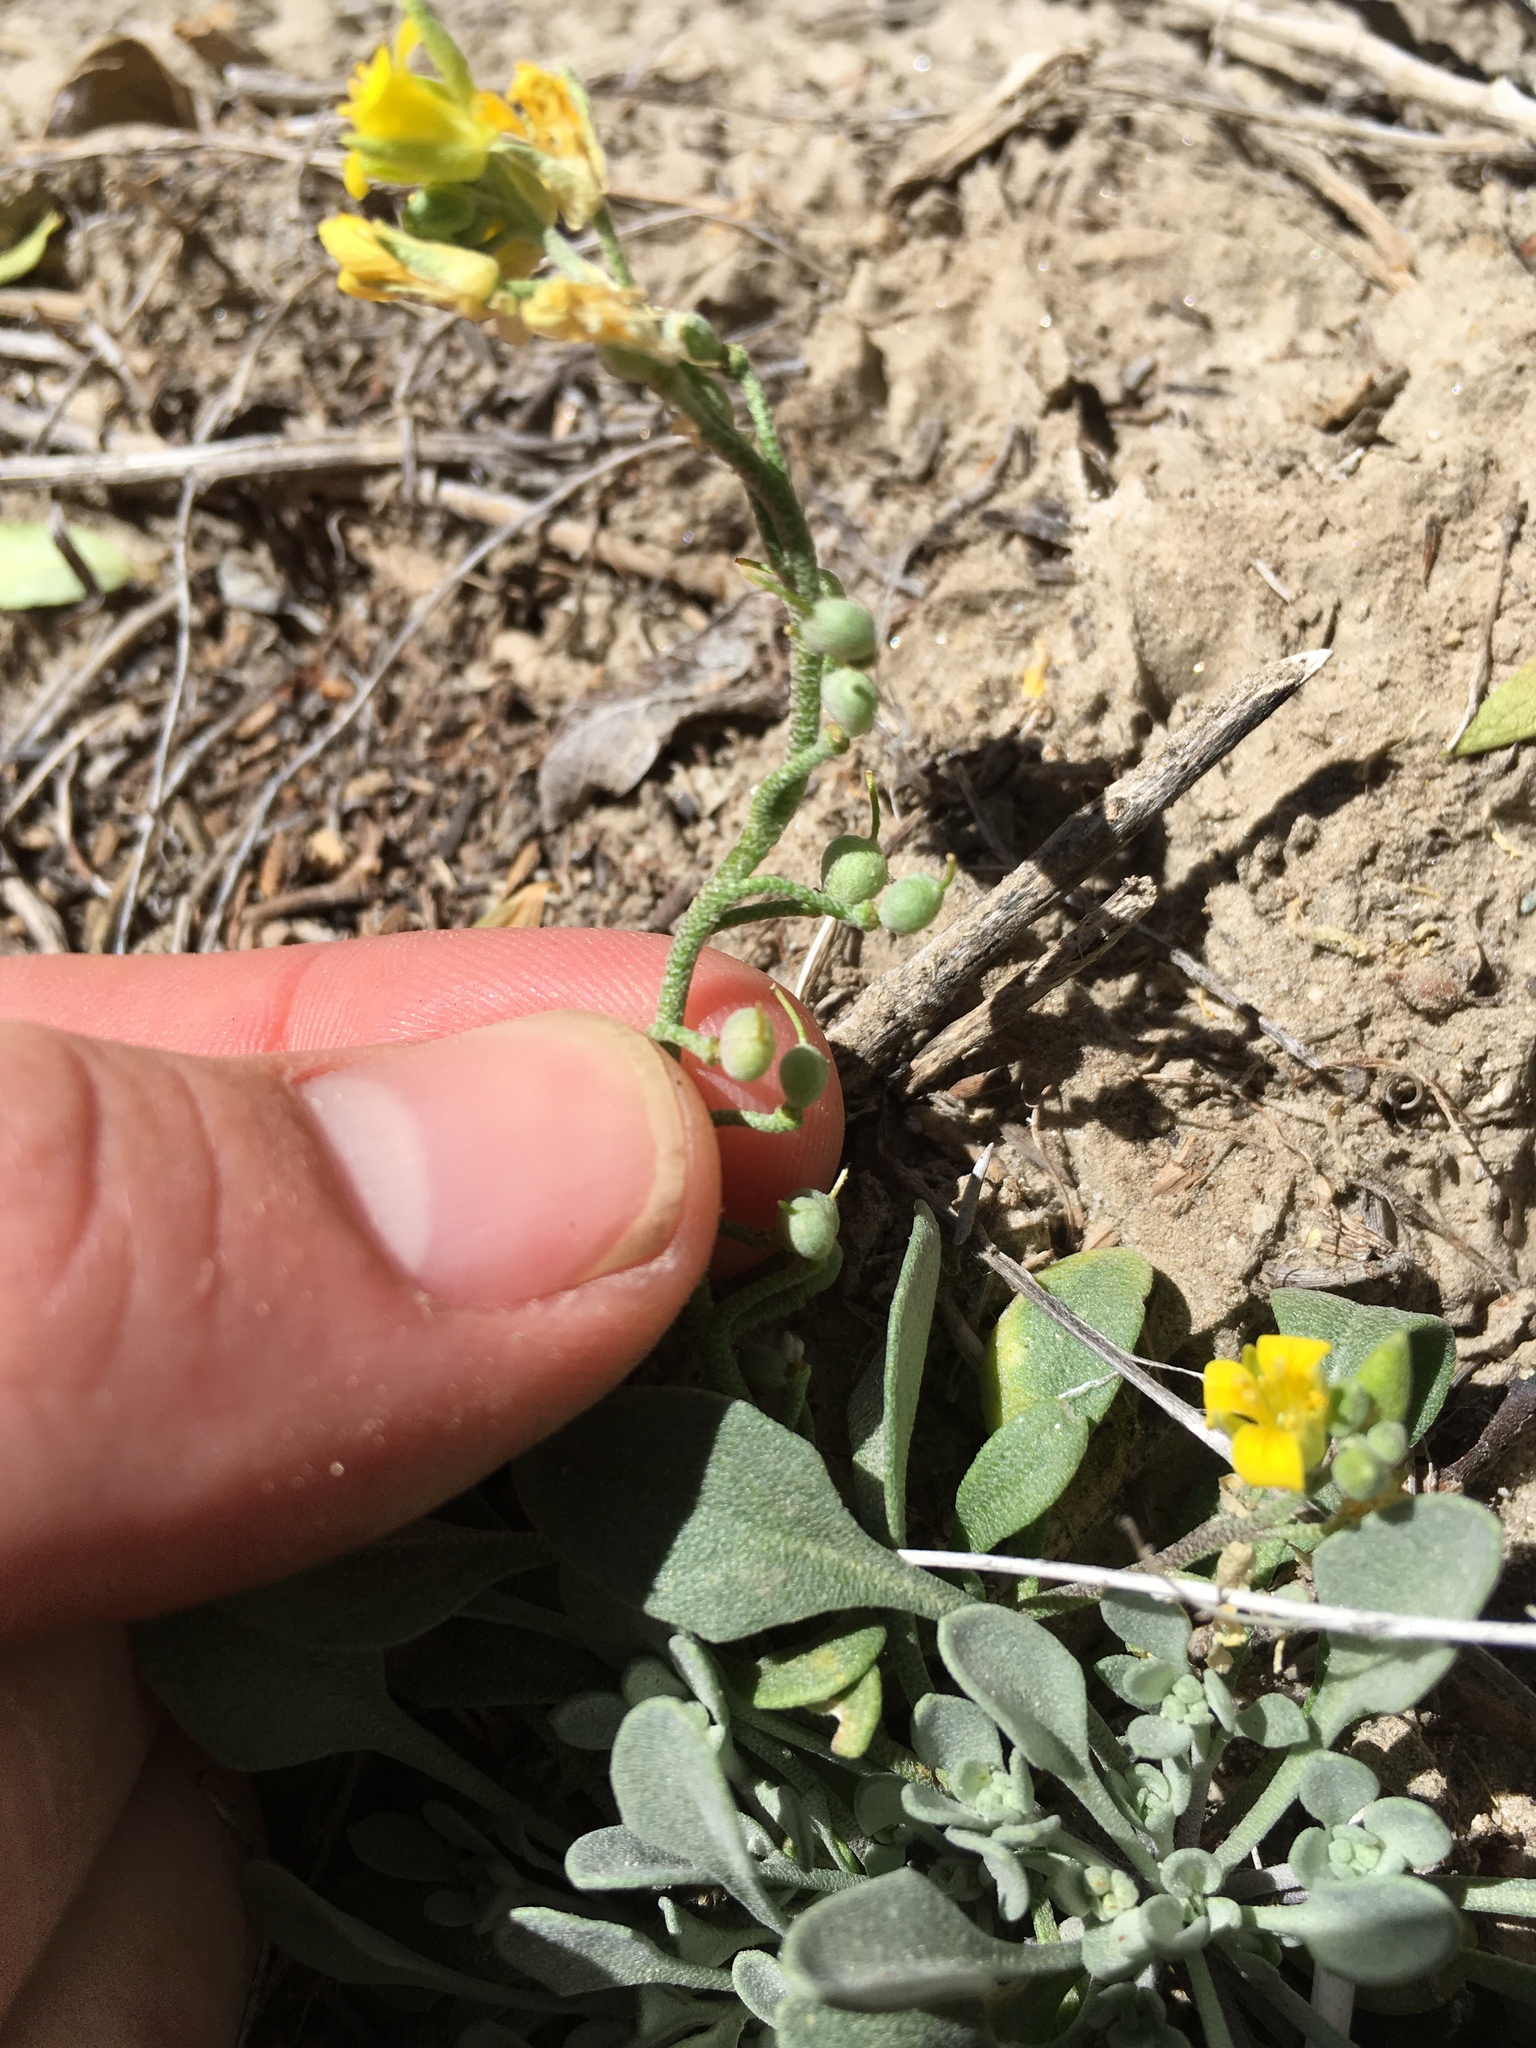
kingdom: Plantae
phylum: Tracheophyta
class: Magnoliopsida
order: Brassicales
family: Brassicaceae
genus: Physaria
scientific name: Physaria kingii
